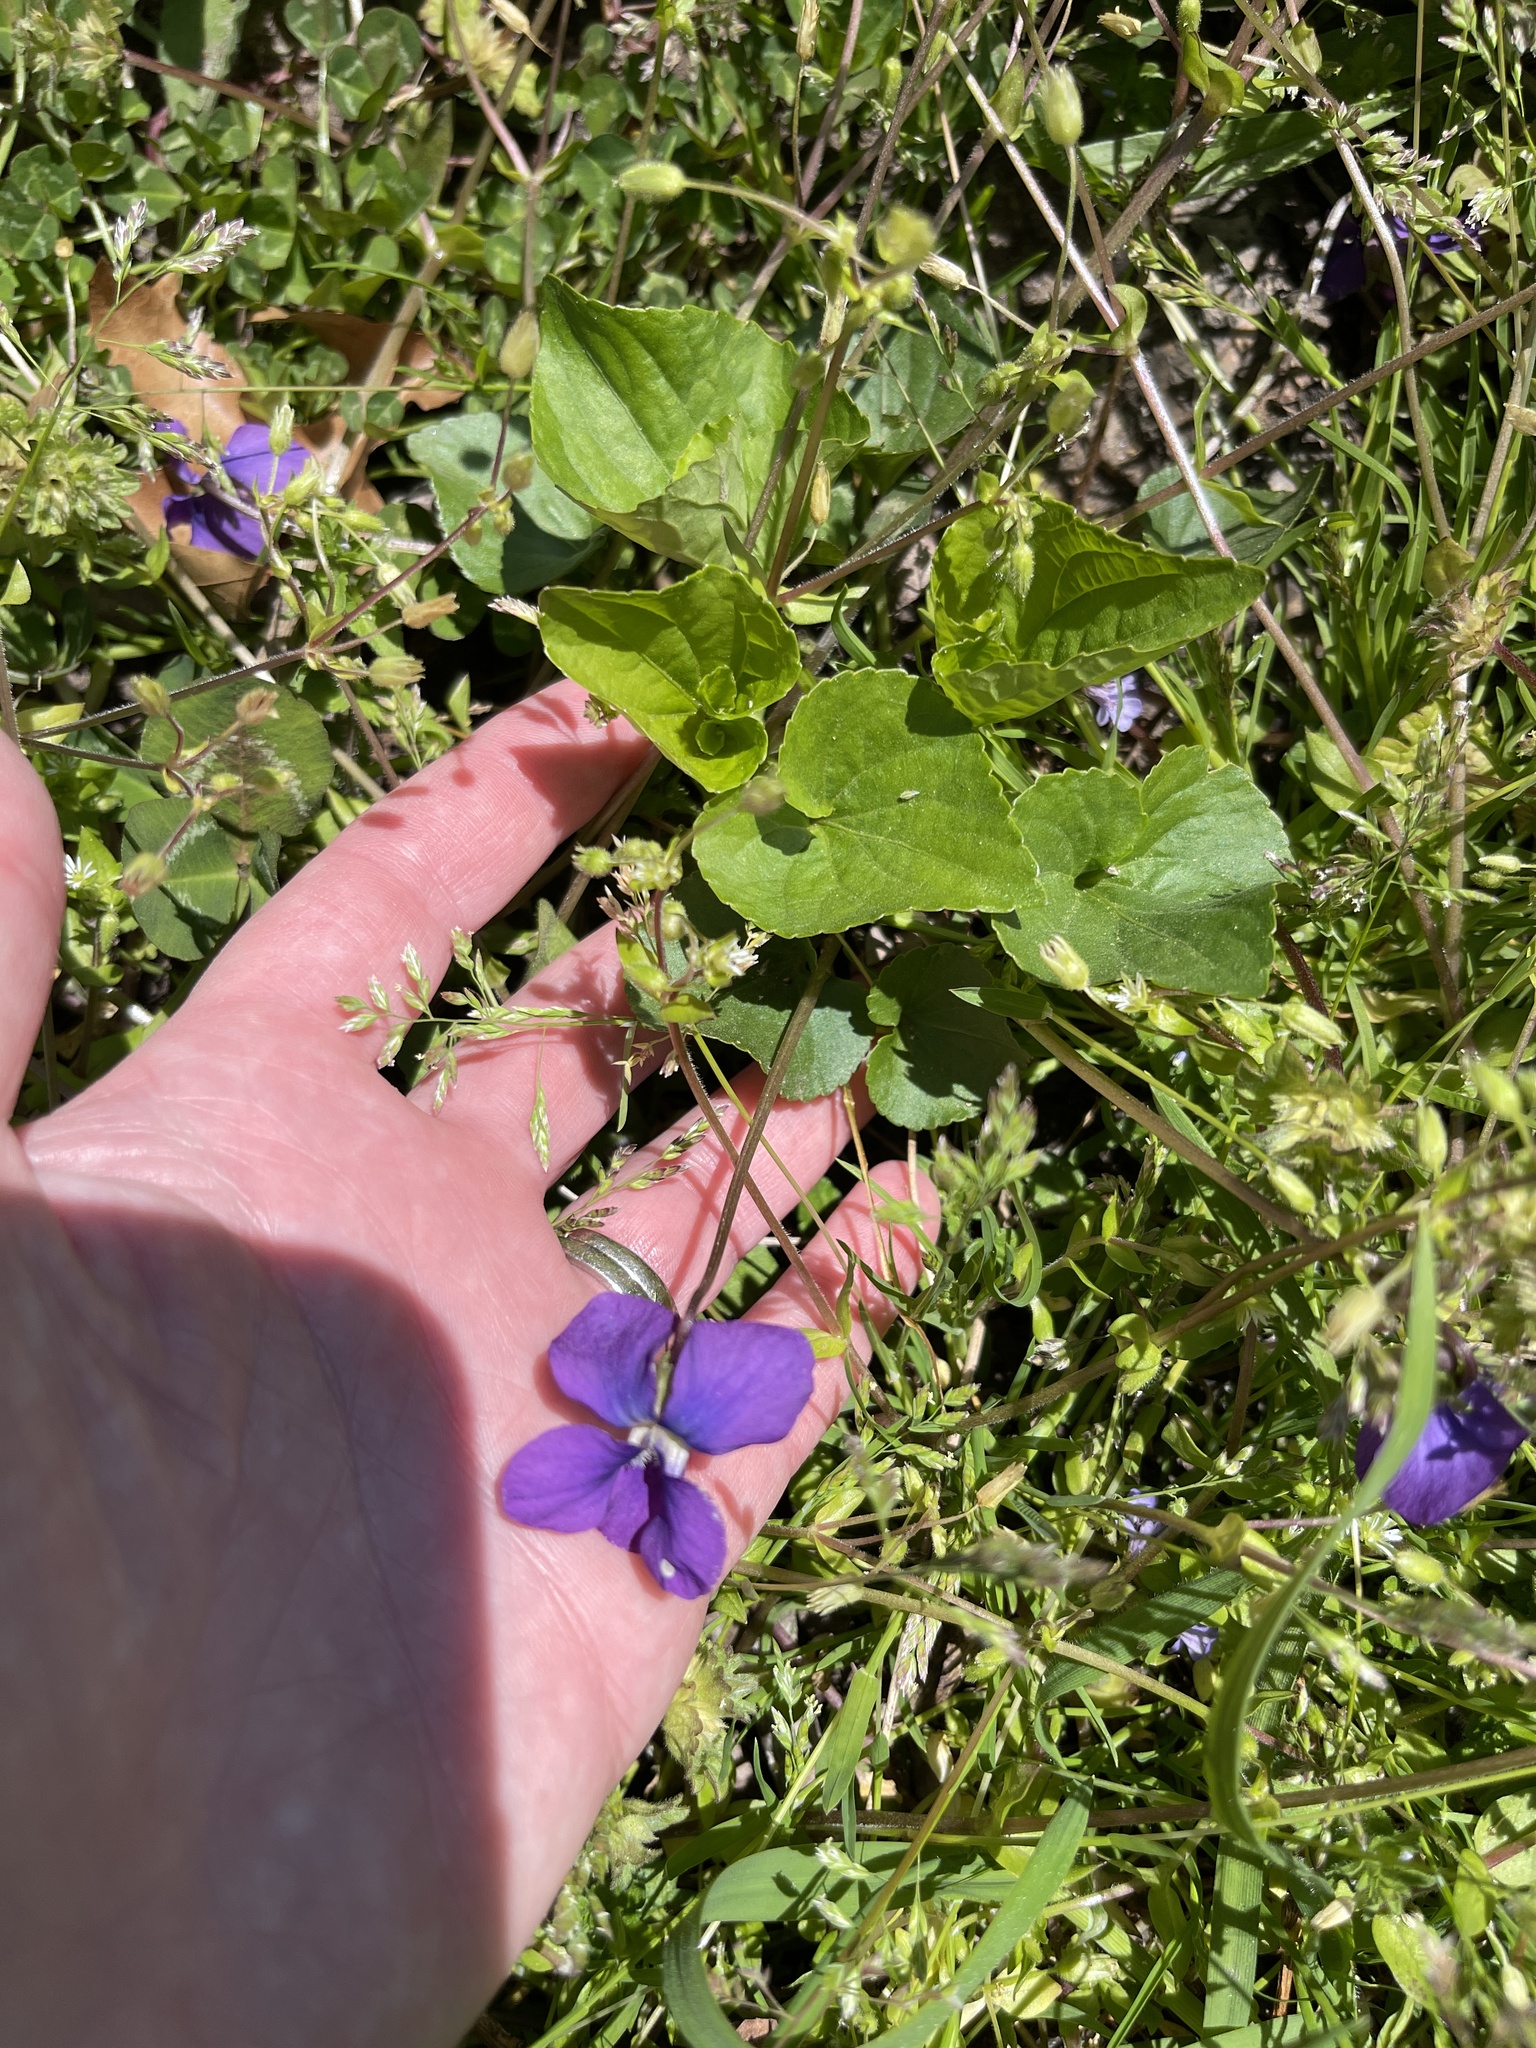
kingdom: Plantae
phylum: Tracheophyta
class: Magnoliopsida
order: Malpighiales
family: Violaceae
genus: Viola
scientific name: Viola sororia
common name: Dooryard violet
